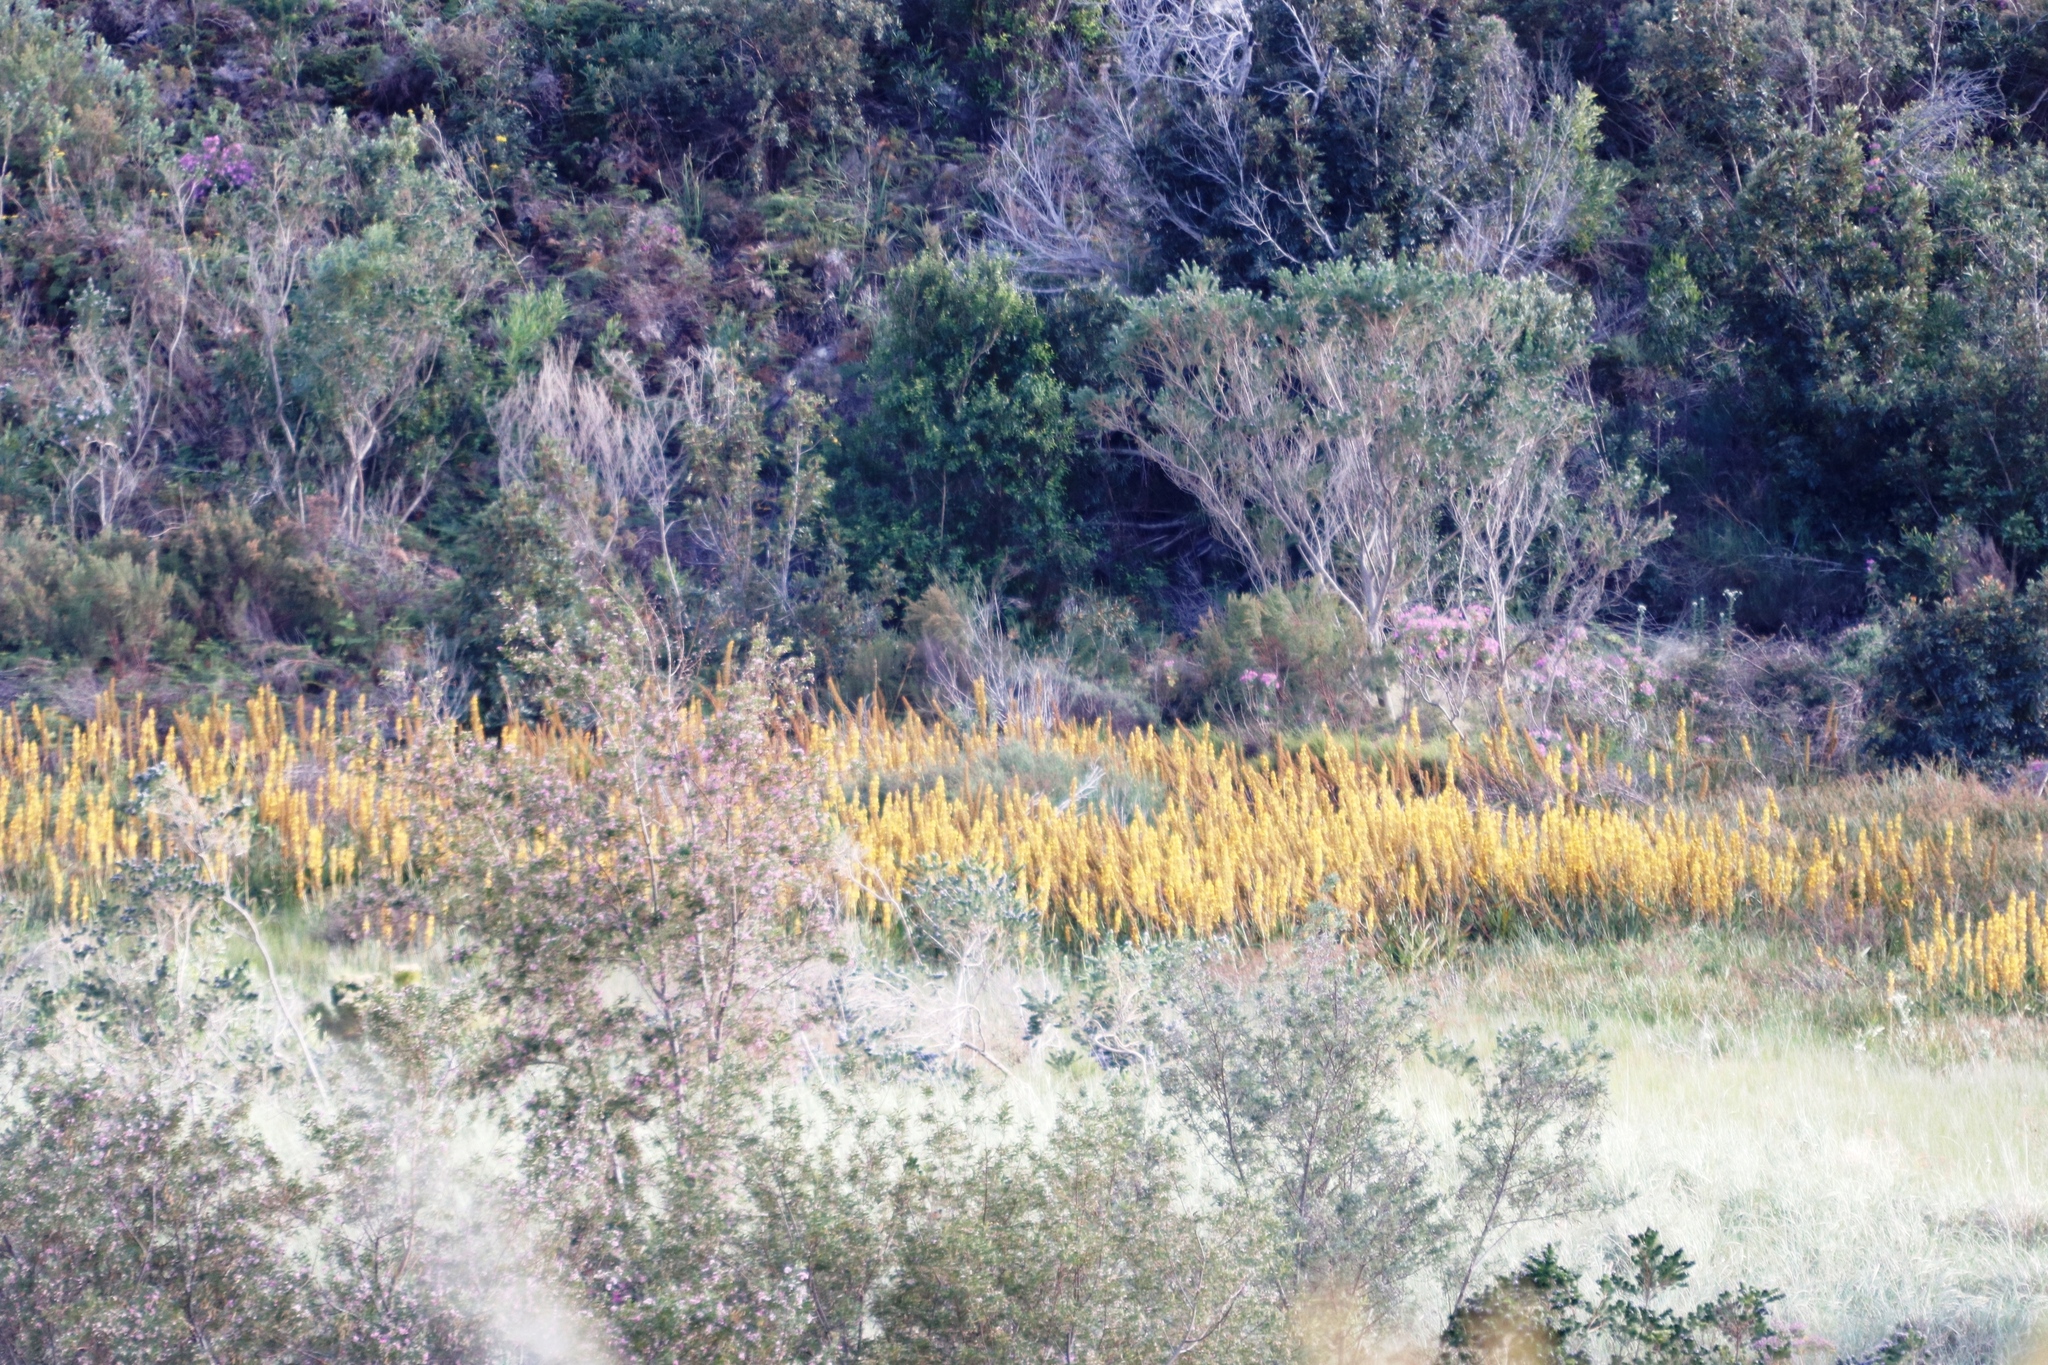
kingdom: Plantae
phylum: Tracheophyta
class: Liliopsida
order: Commelinales
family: Haemodoraceae
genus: Wachendorfia
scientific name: Wachendorfia thyrsiflora
